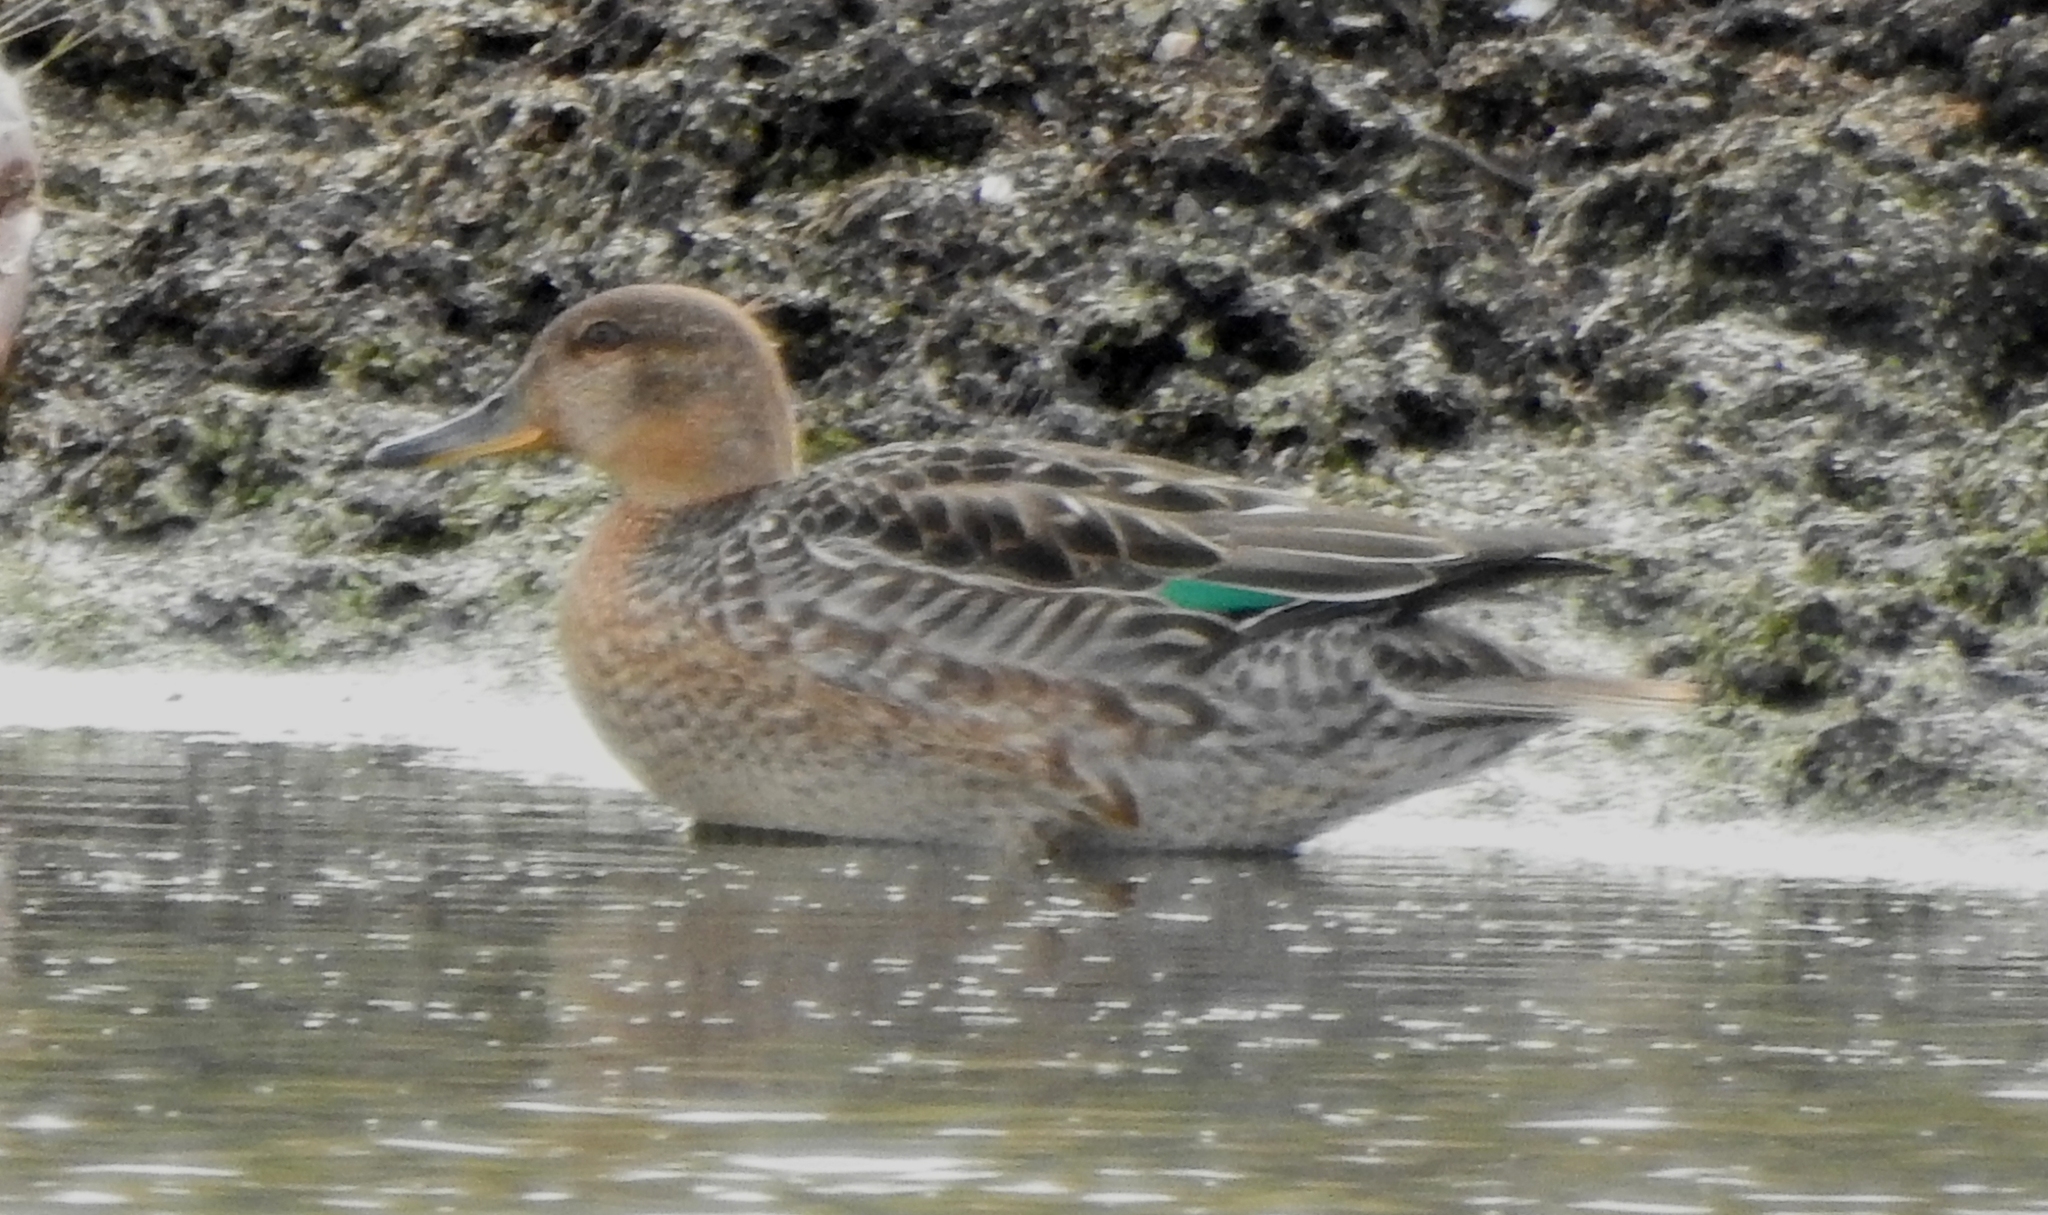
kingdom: Animalia
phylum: Chordata
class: Aves
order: Anseriformes
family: Anatidae
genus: Anas
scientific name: Anas crecca
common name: Eurasian teal
